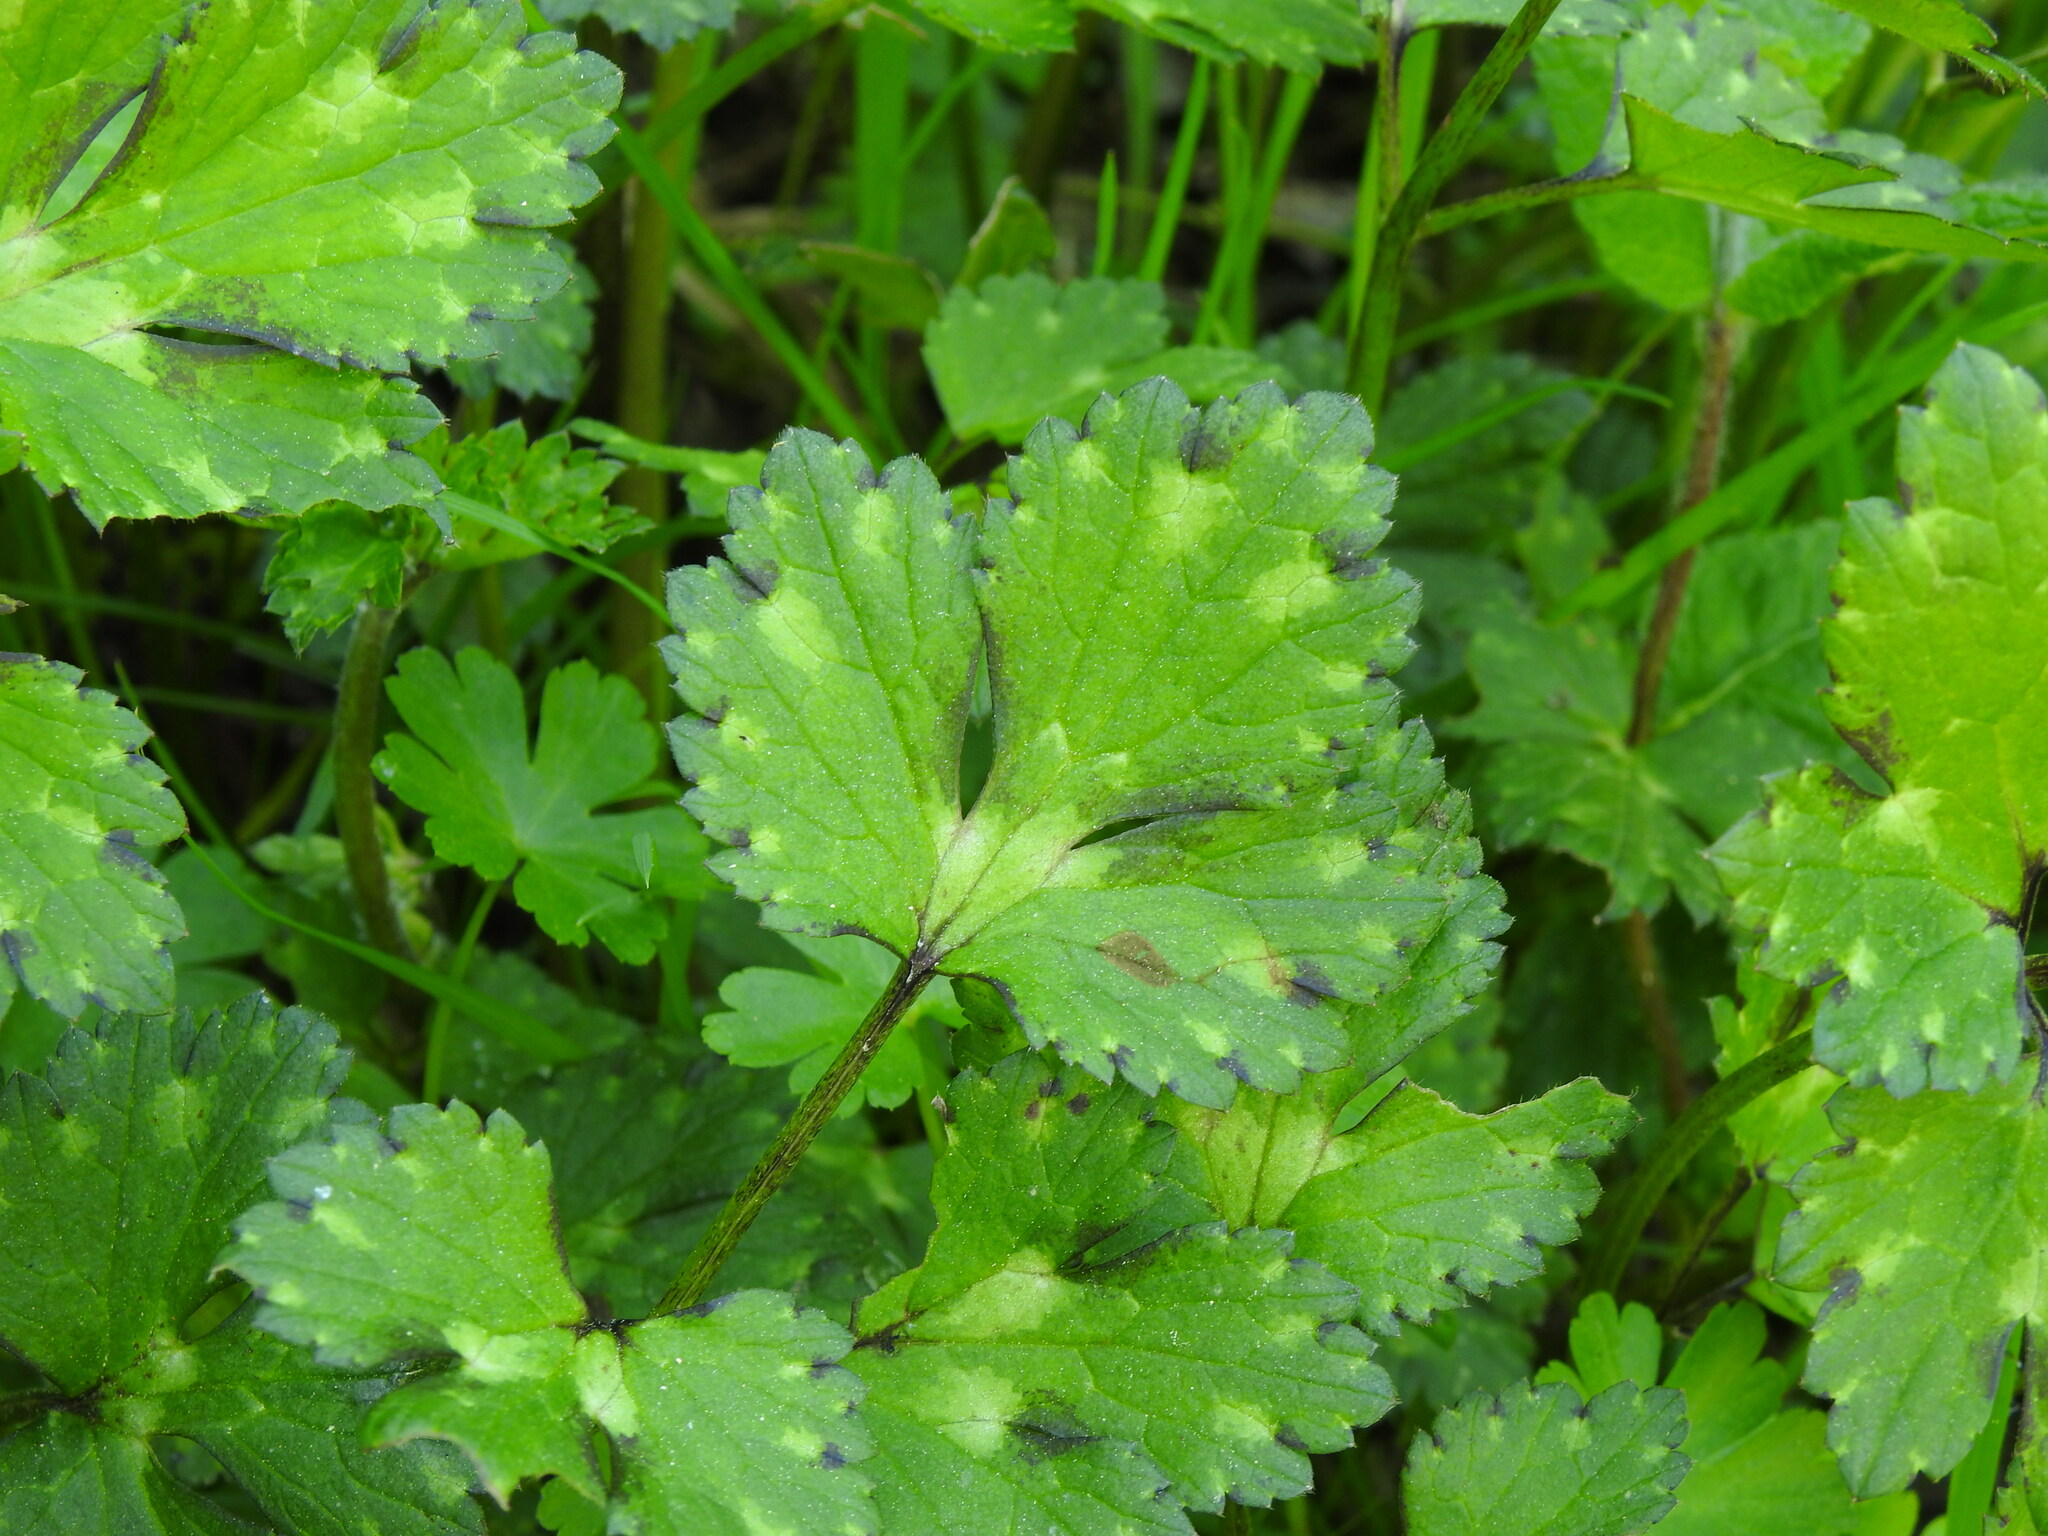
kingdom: Plantae
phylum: Tracheophyta
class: Magnoliopsida
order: Ranunculales
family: Ranunculaceae
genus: Ranunculus
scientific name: Ranunculus repens
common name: Creeping buttercup
